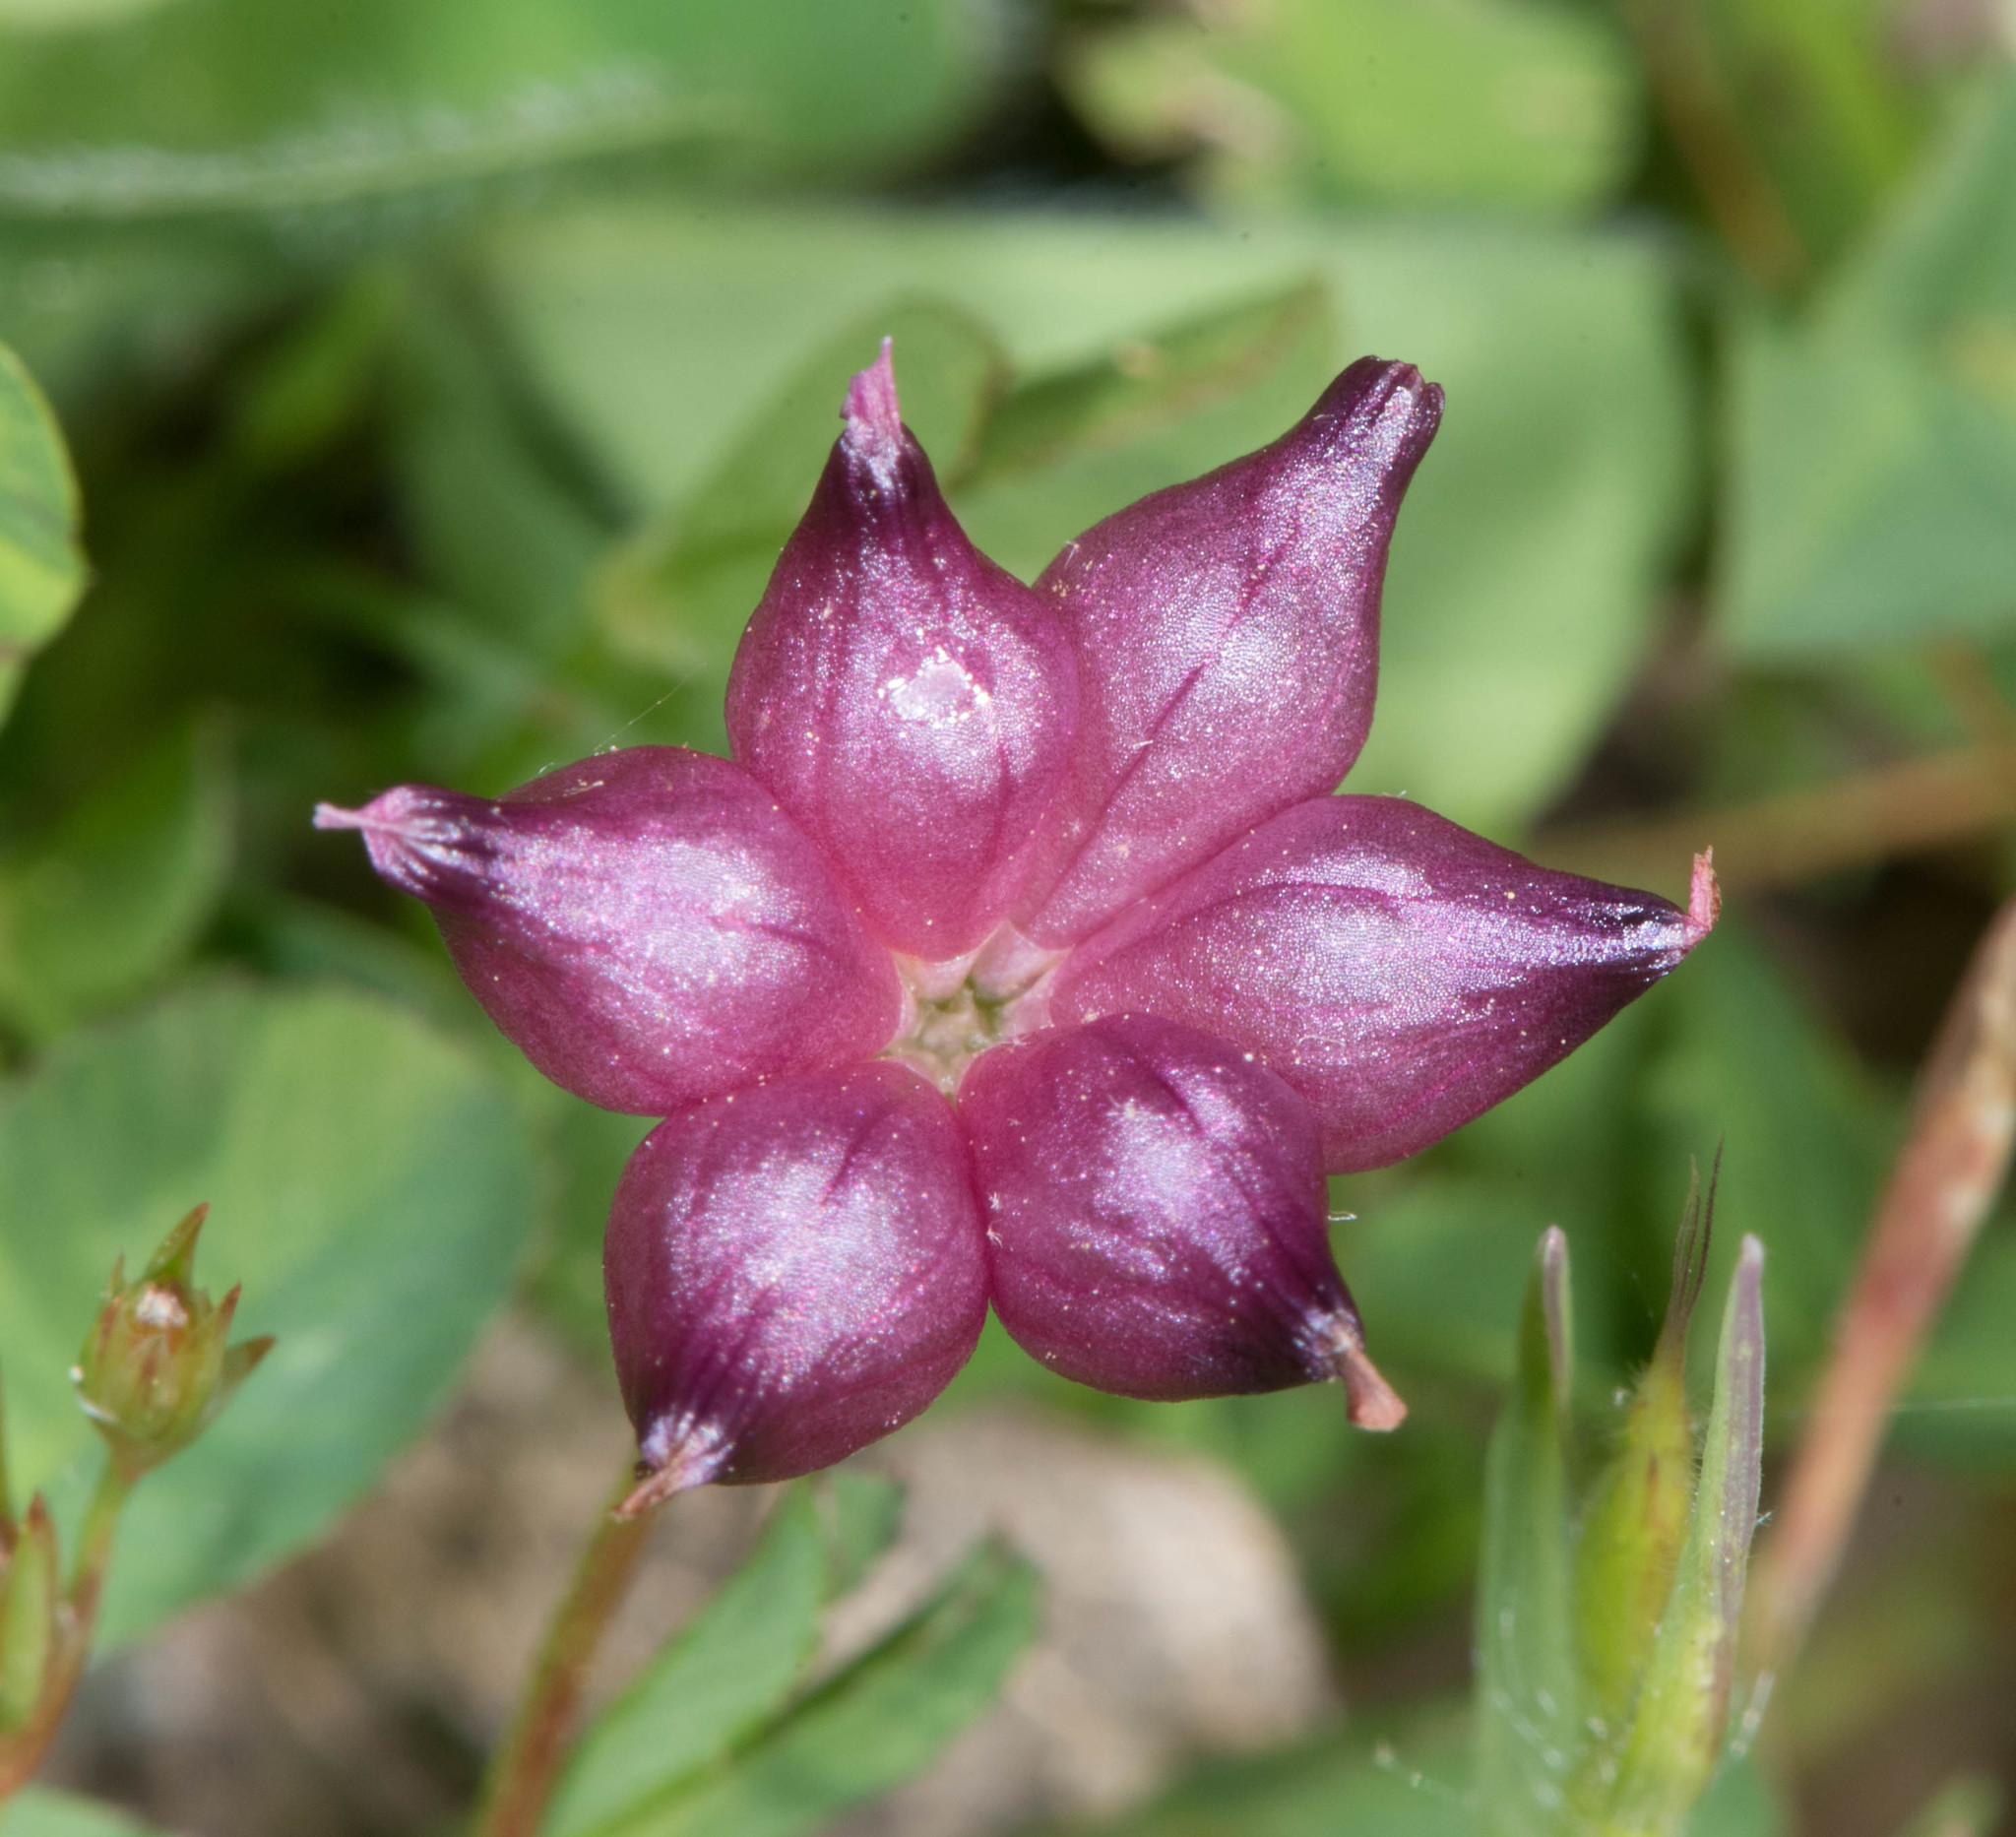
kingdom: Plantae
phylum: Tracheophyta
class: Magnoliopsida
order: Fabales
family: Fabaceae
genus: Trifolium
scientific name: Trifolium depauperatum
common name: Poverty clover
